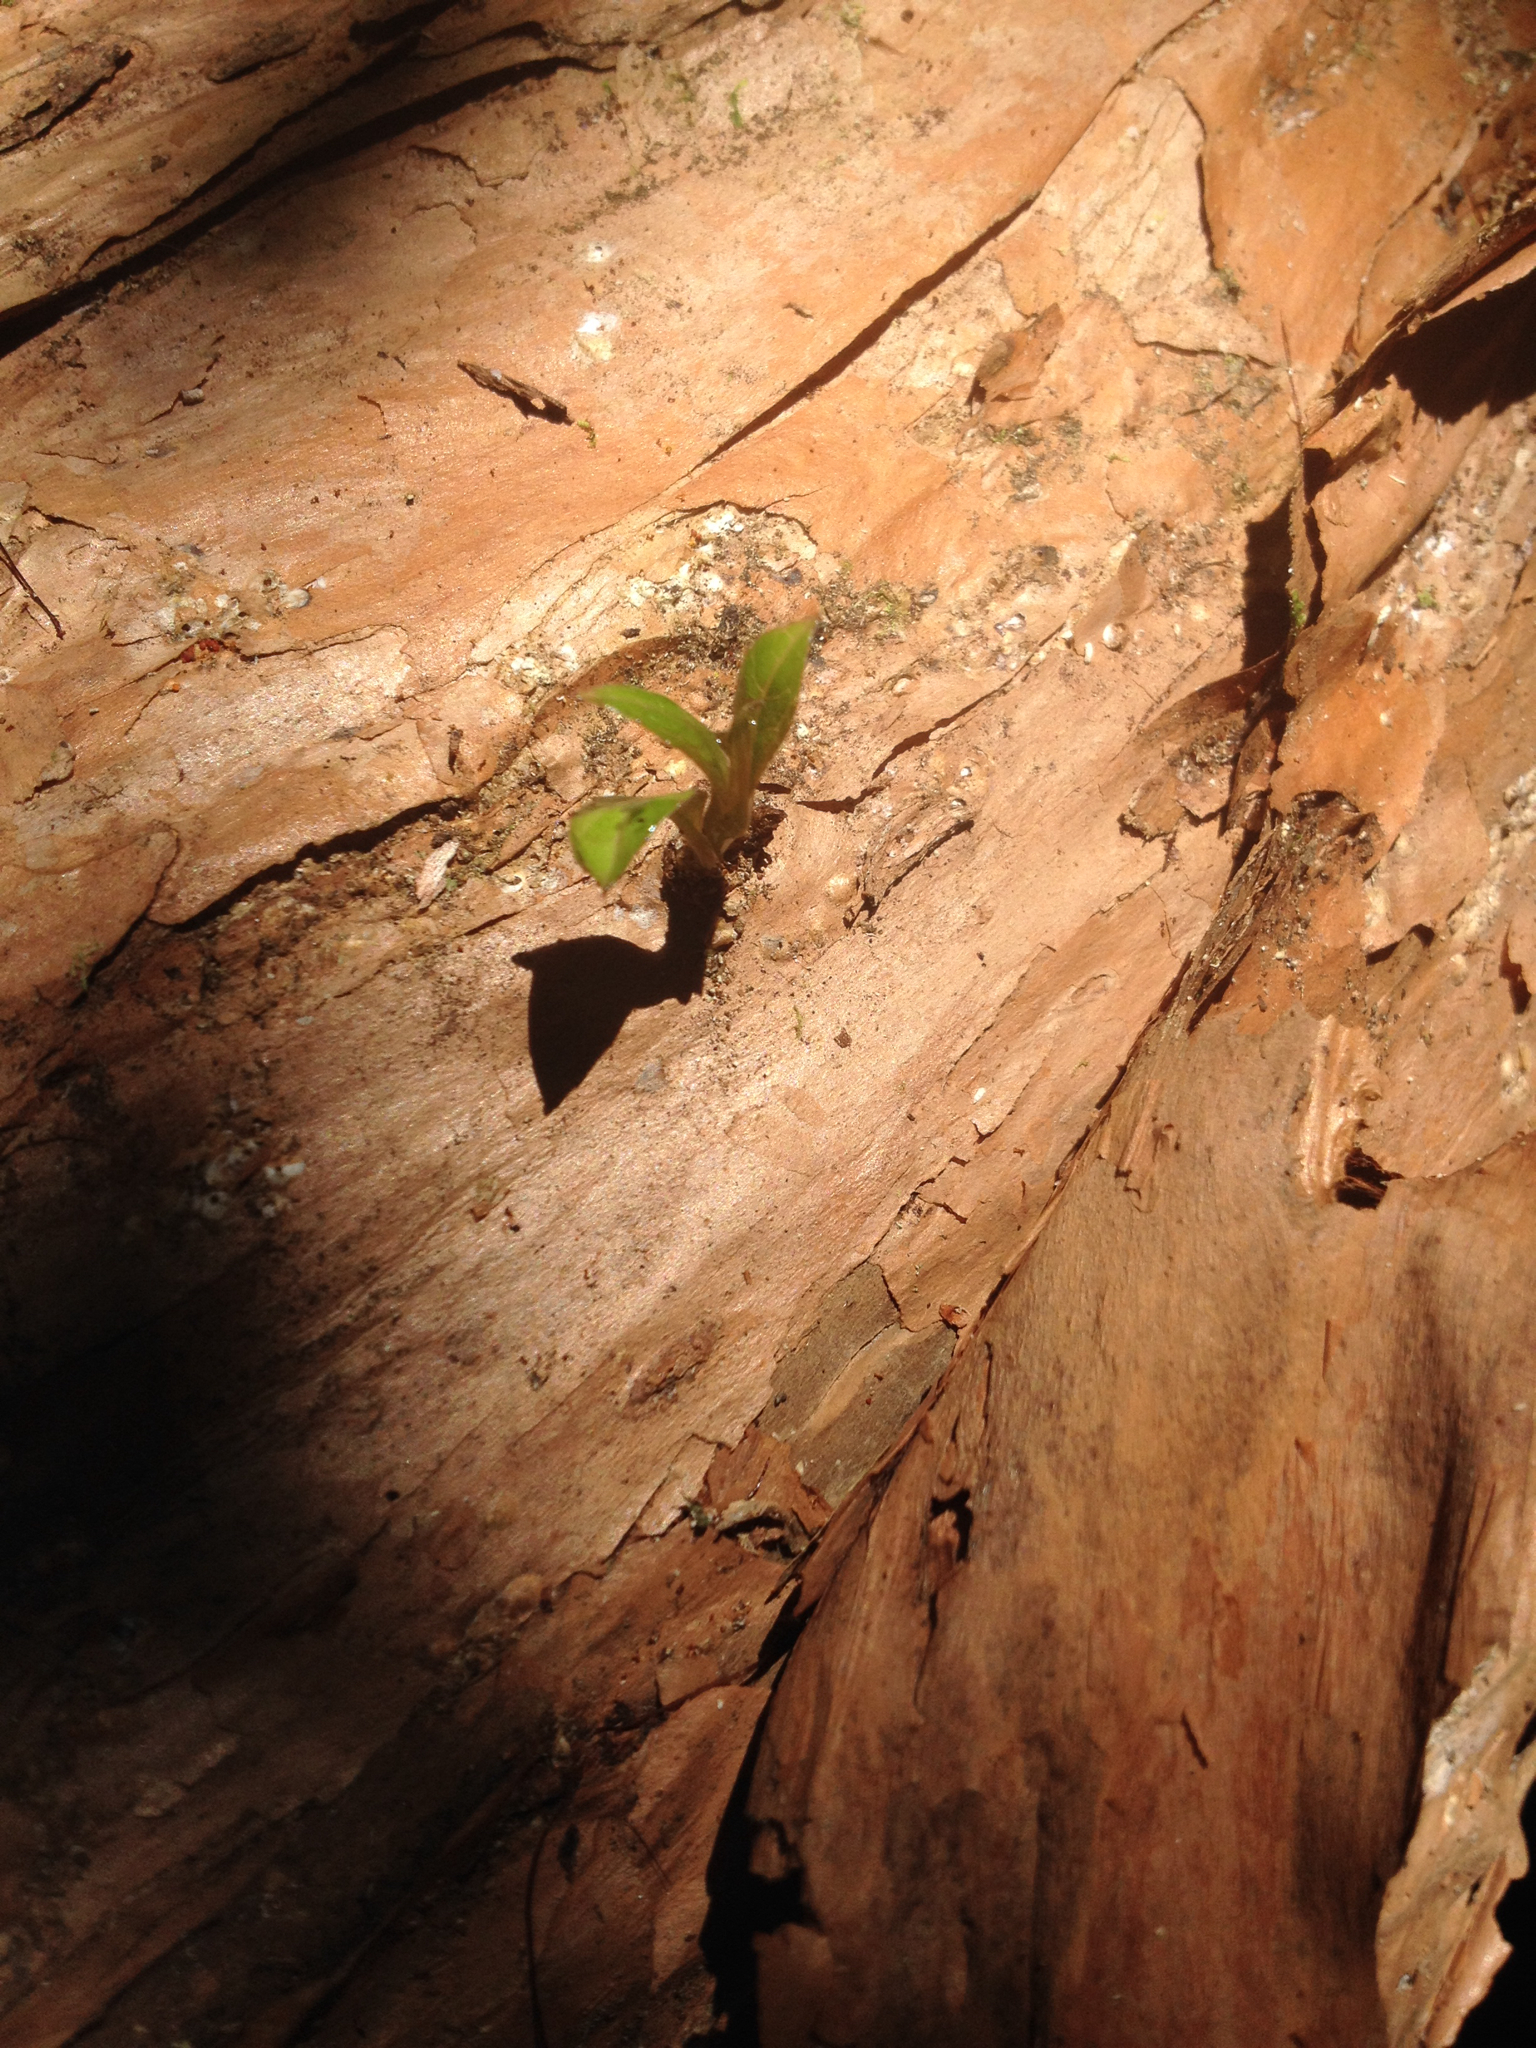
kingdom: Plantae
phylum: Tracheophyta
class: Magnoliopsida
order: Myrtales
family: Onagraceae
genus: Fuchsia
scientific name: Fuchsia excorticata
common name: Tree fuchsia
